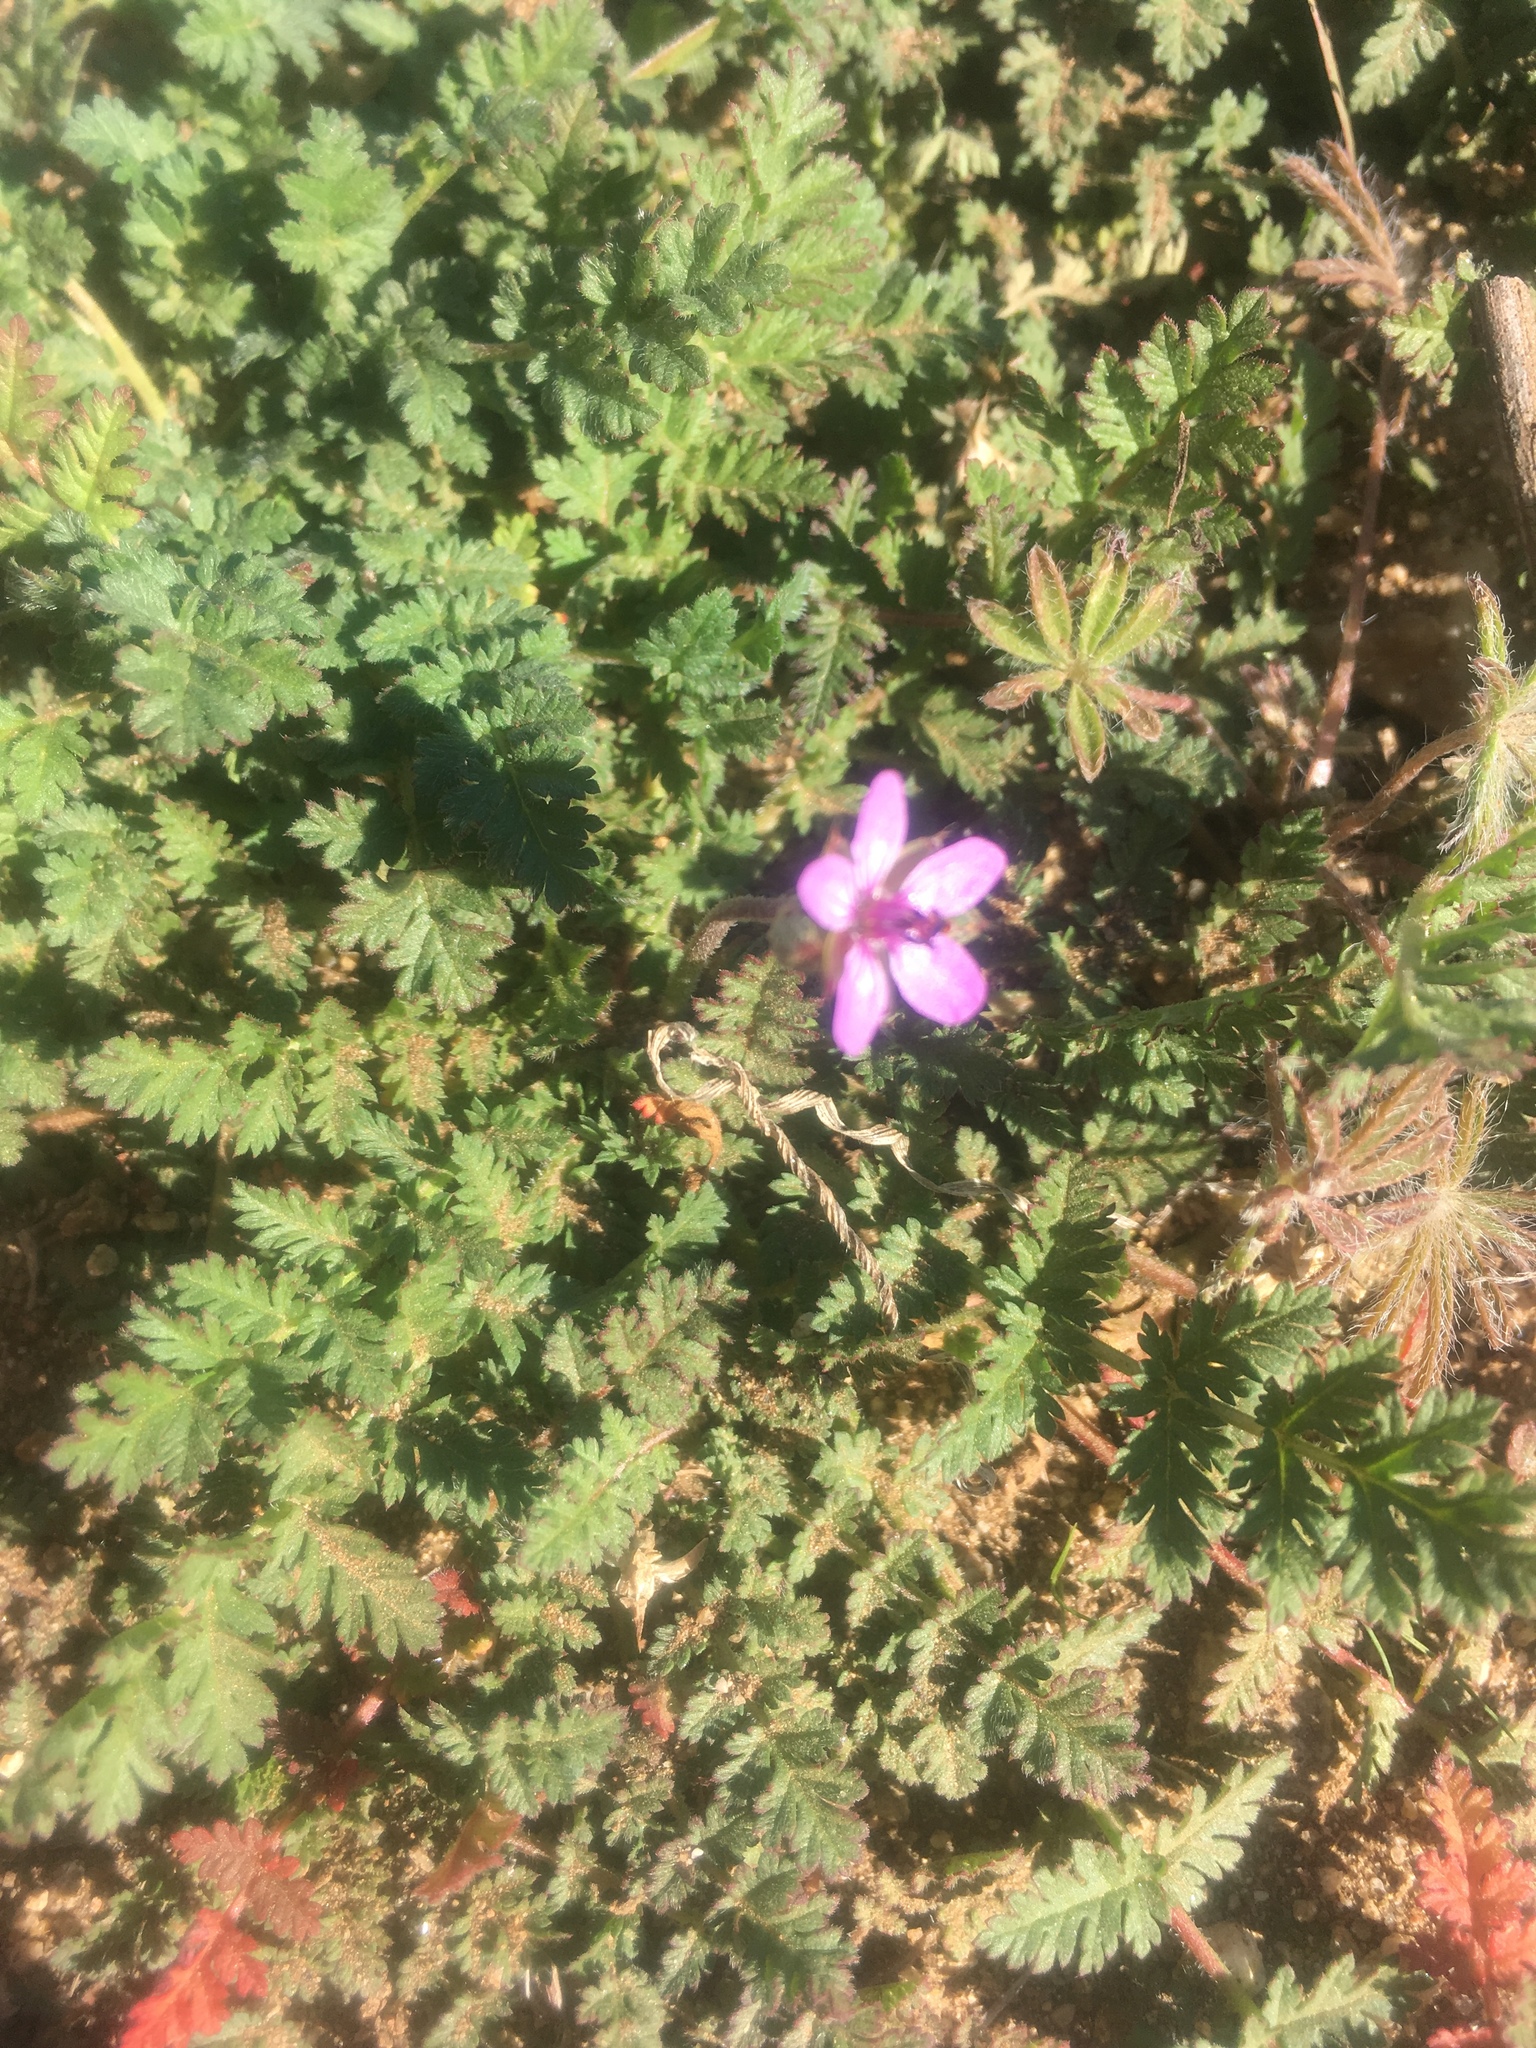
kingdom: Plantae
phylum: Tracheophyta
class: Magnoliopsida
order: Geraniales
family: Geraniaceae
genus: Erodium
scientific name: Erodium cicutarium
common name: Common stork's-bill
